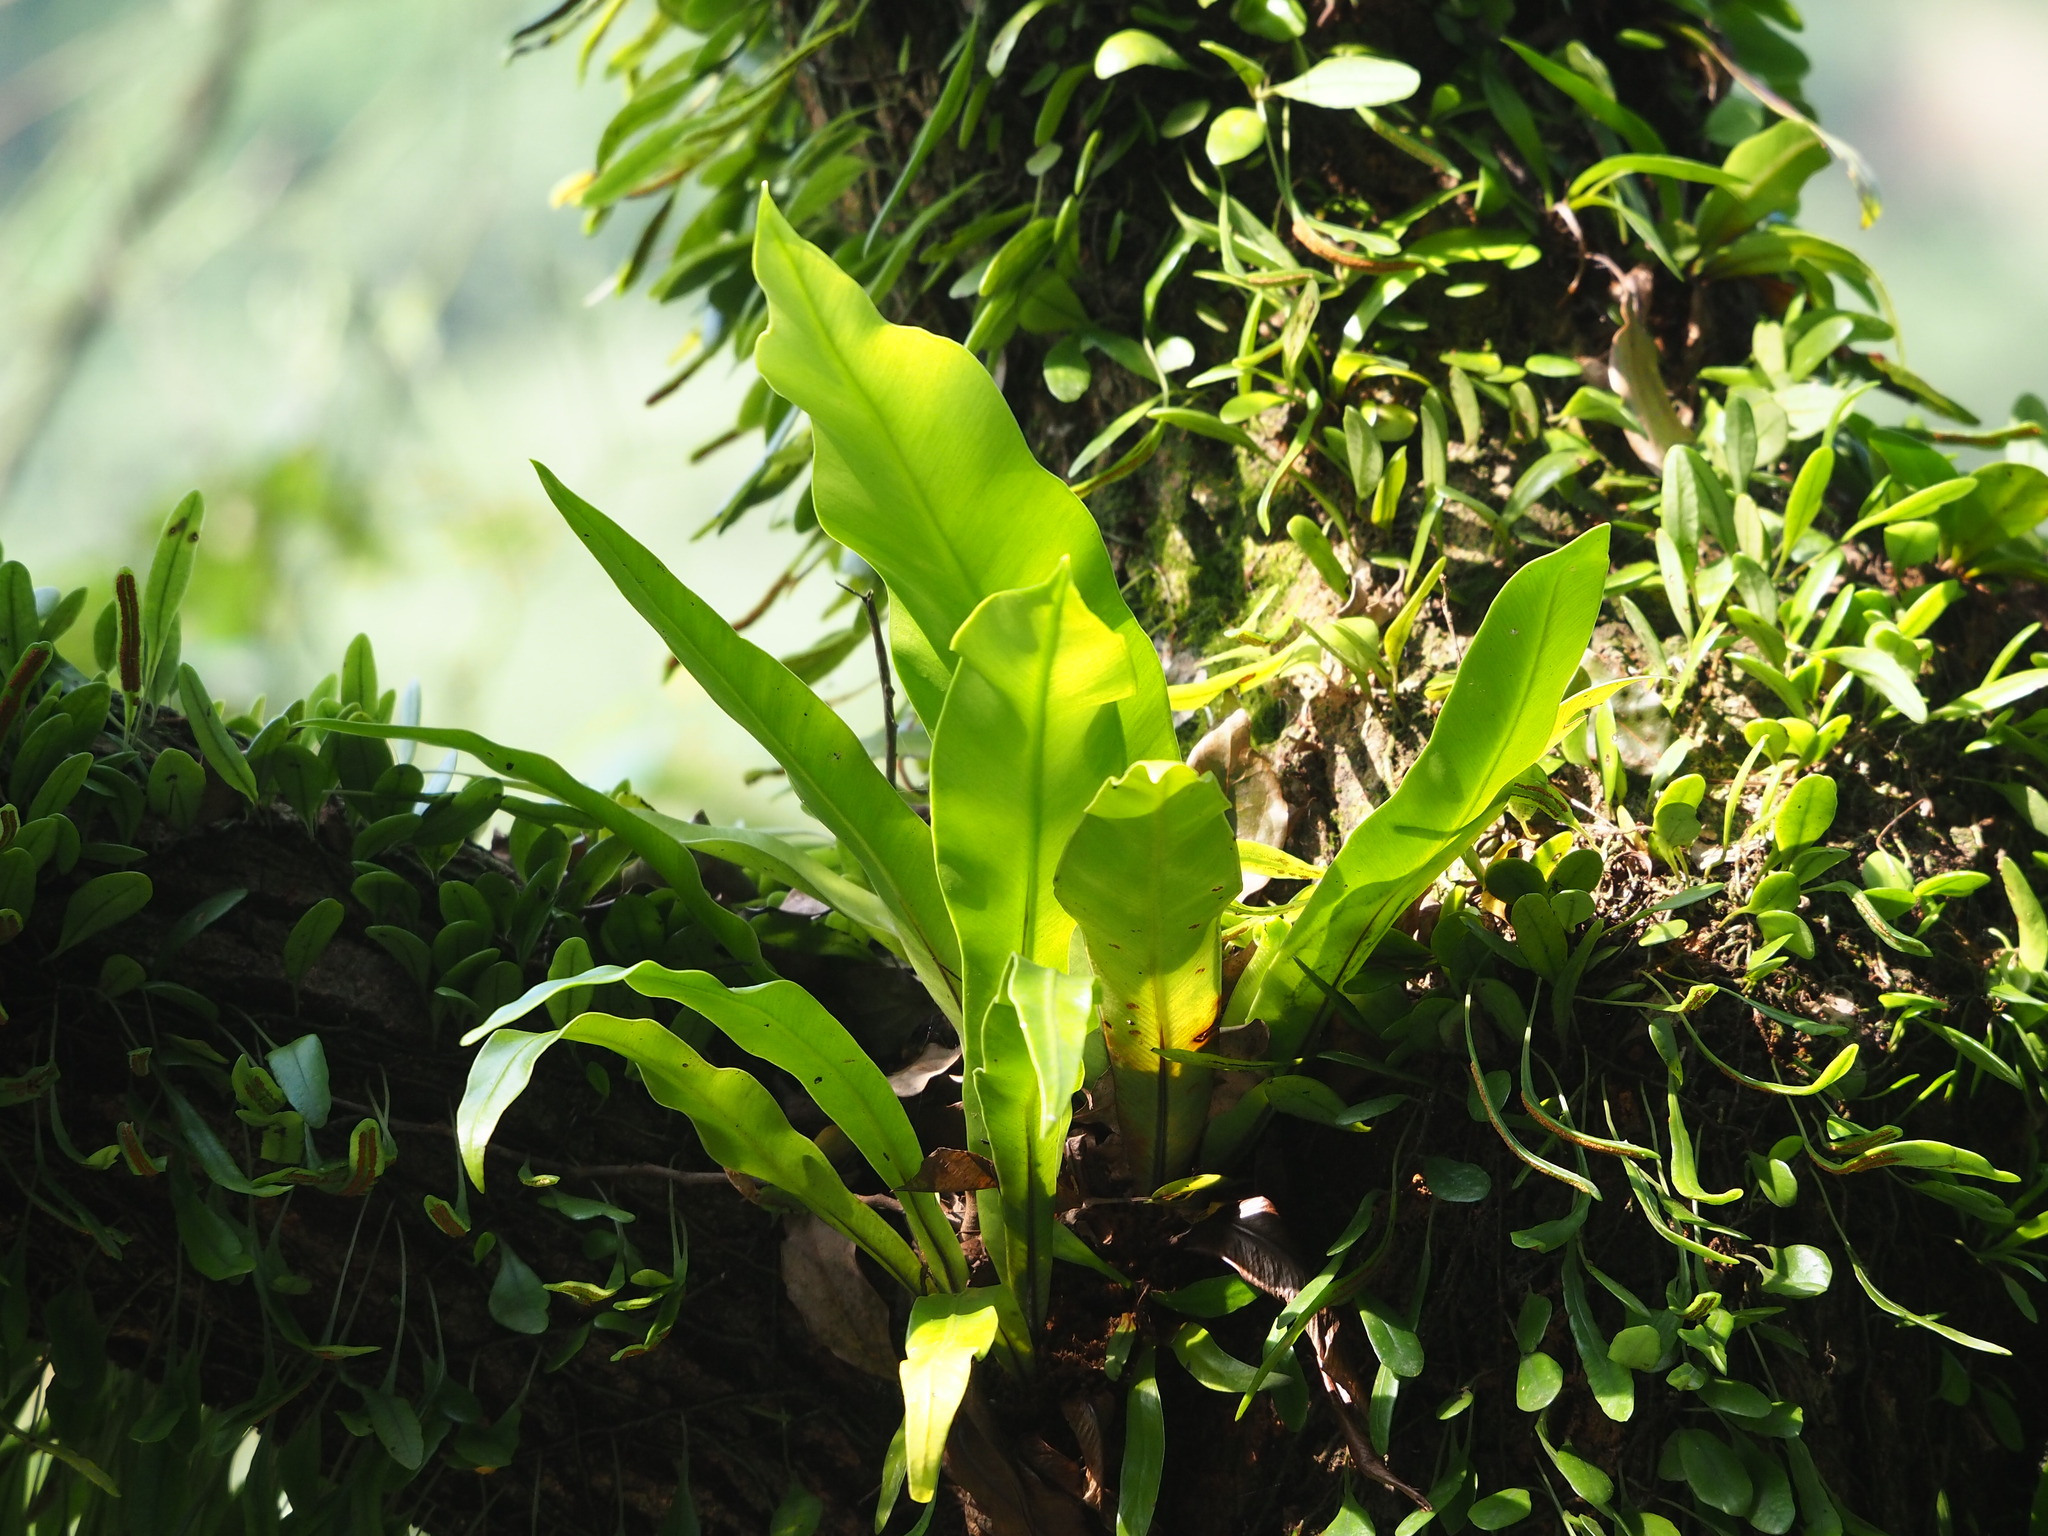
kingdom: Plantae
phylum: Tracheophyta
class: Polypodiopsida
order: Polypodiales
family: Aspleniaceae
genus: Asplenium
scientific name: Asplenium nidus
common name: Bird's-nest fern
